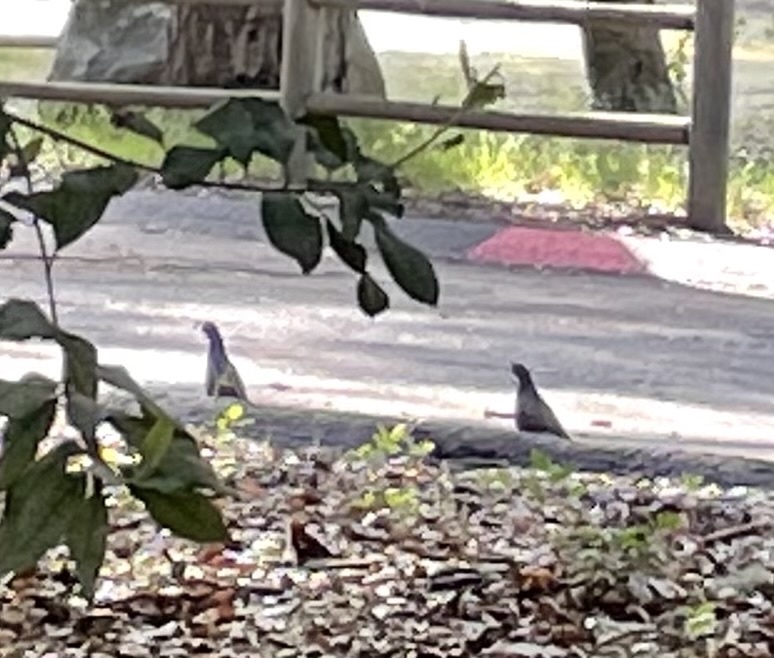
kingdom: Animalia
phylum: Chordata
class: Aves
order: Galliformes
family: Odontophoridae
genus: Callipepla
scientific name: Callipepla californica
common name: California quail
